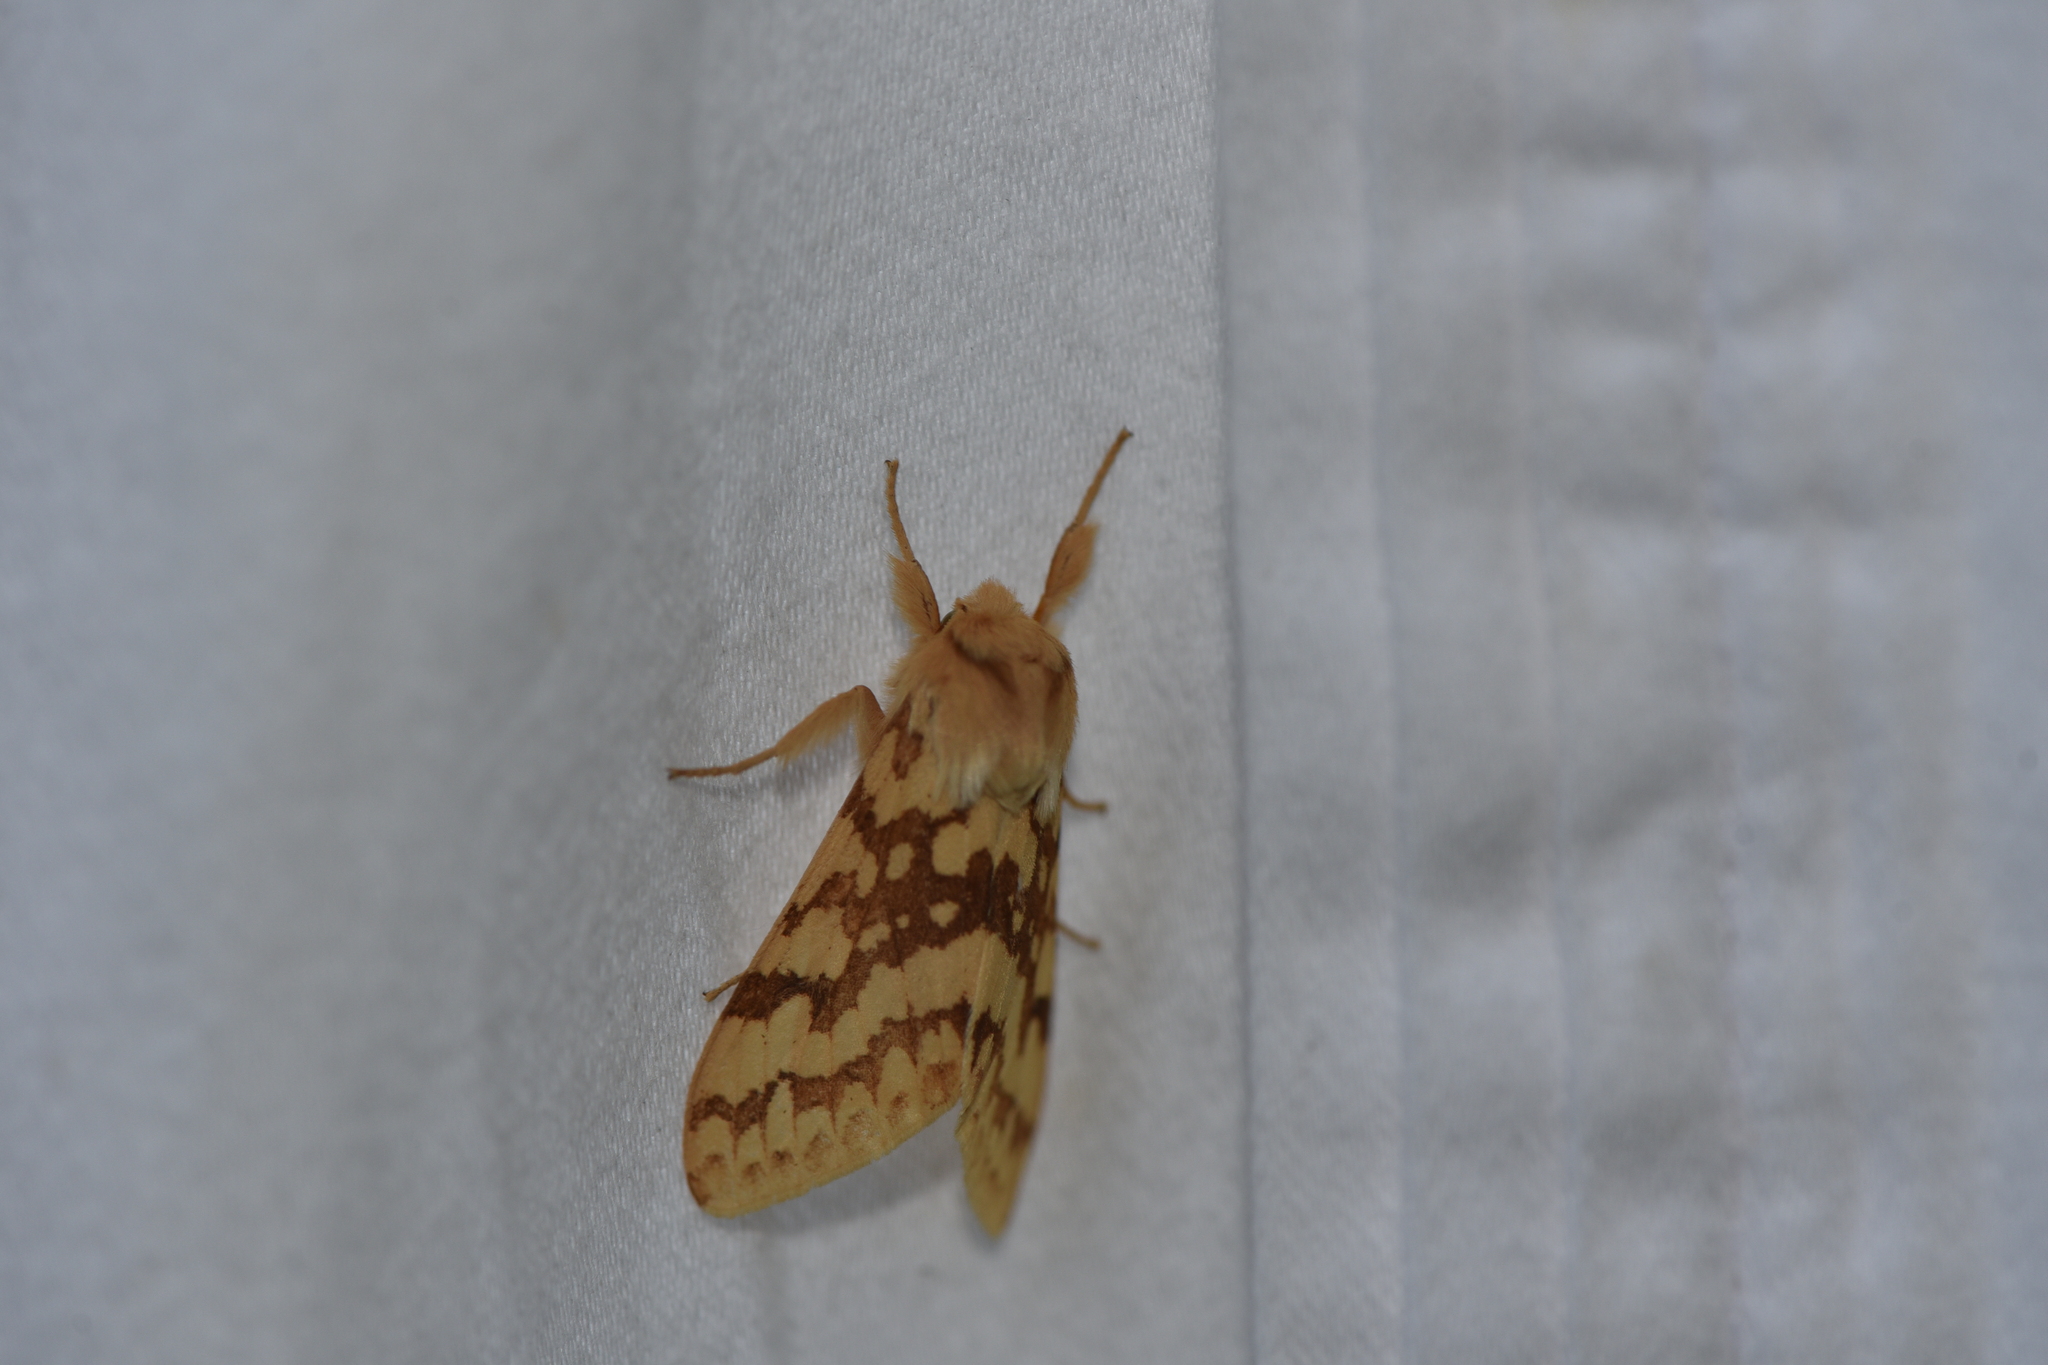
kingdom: Animalia
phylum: Arthropoda
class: Insecta
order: Lepidoptera
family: Erebidae
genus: Lophocampa
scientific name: Lophocampa maculata
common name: Spotted tussock moth
